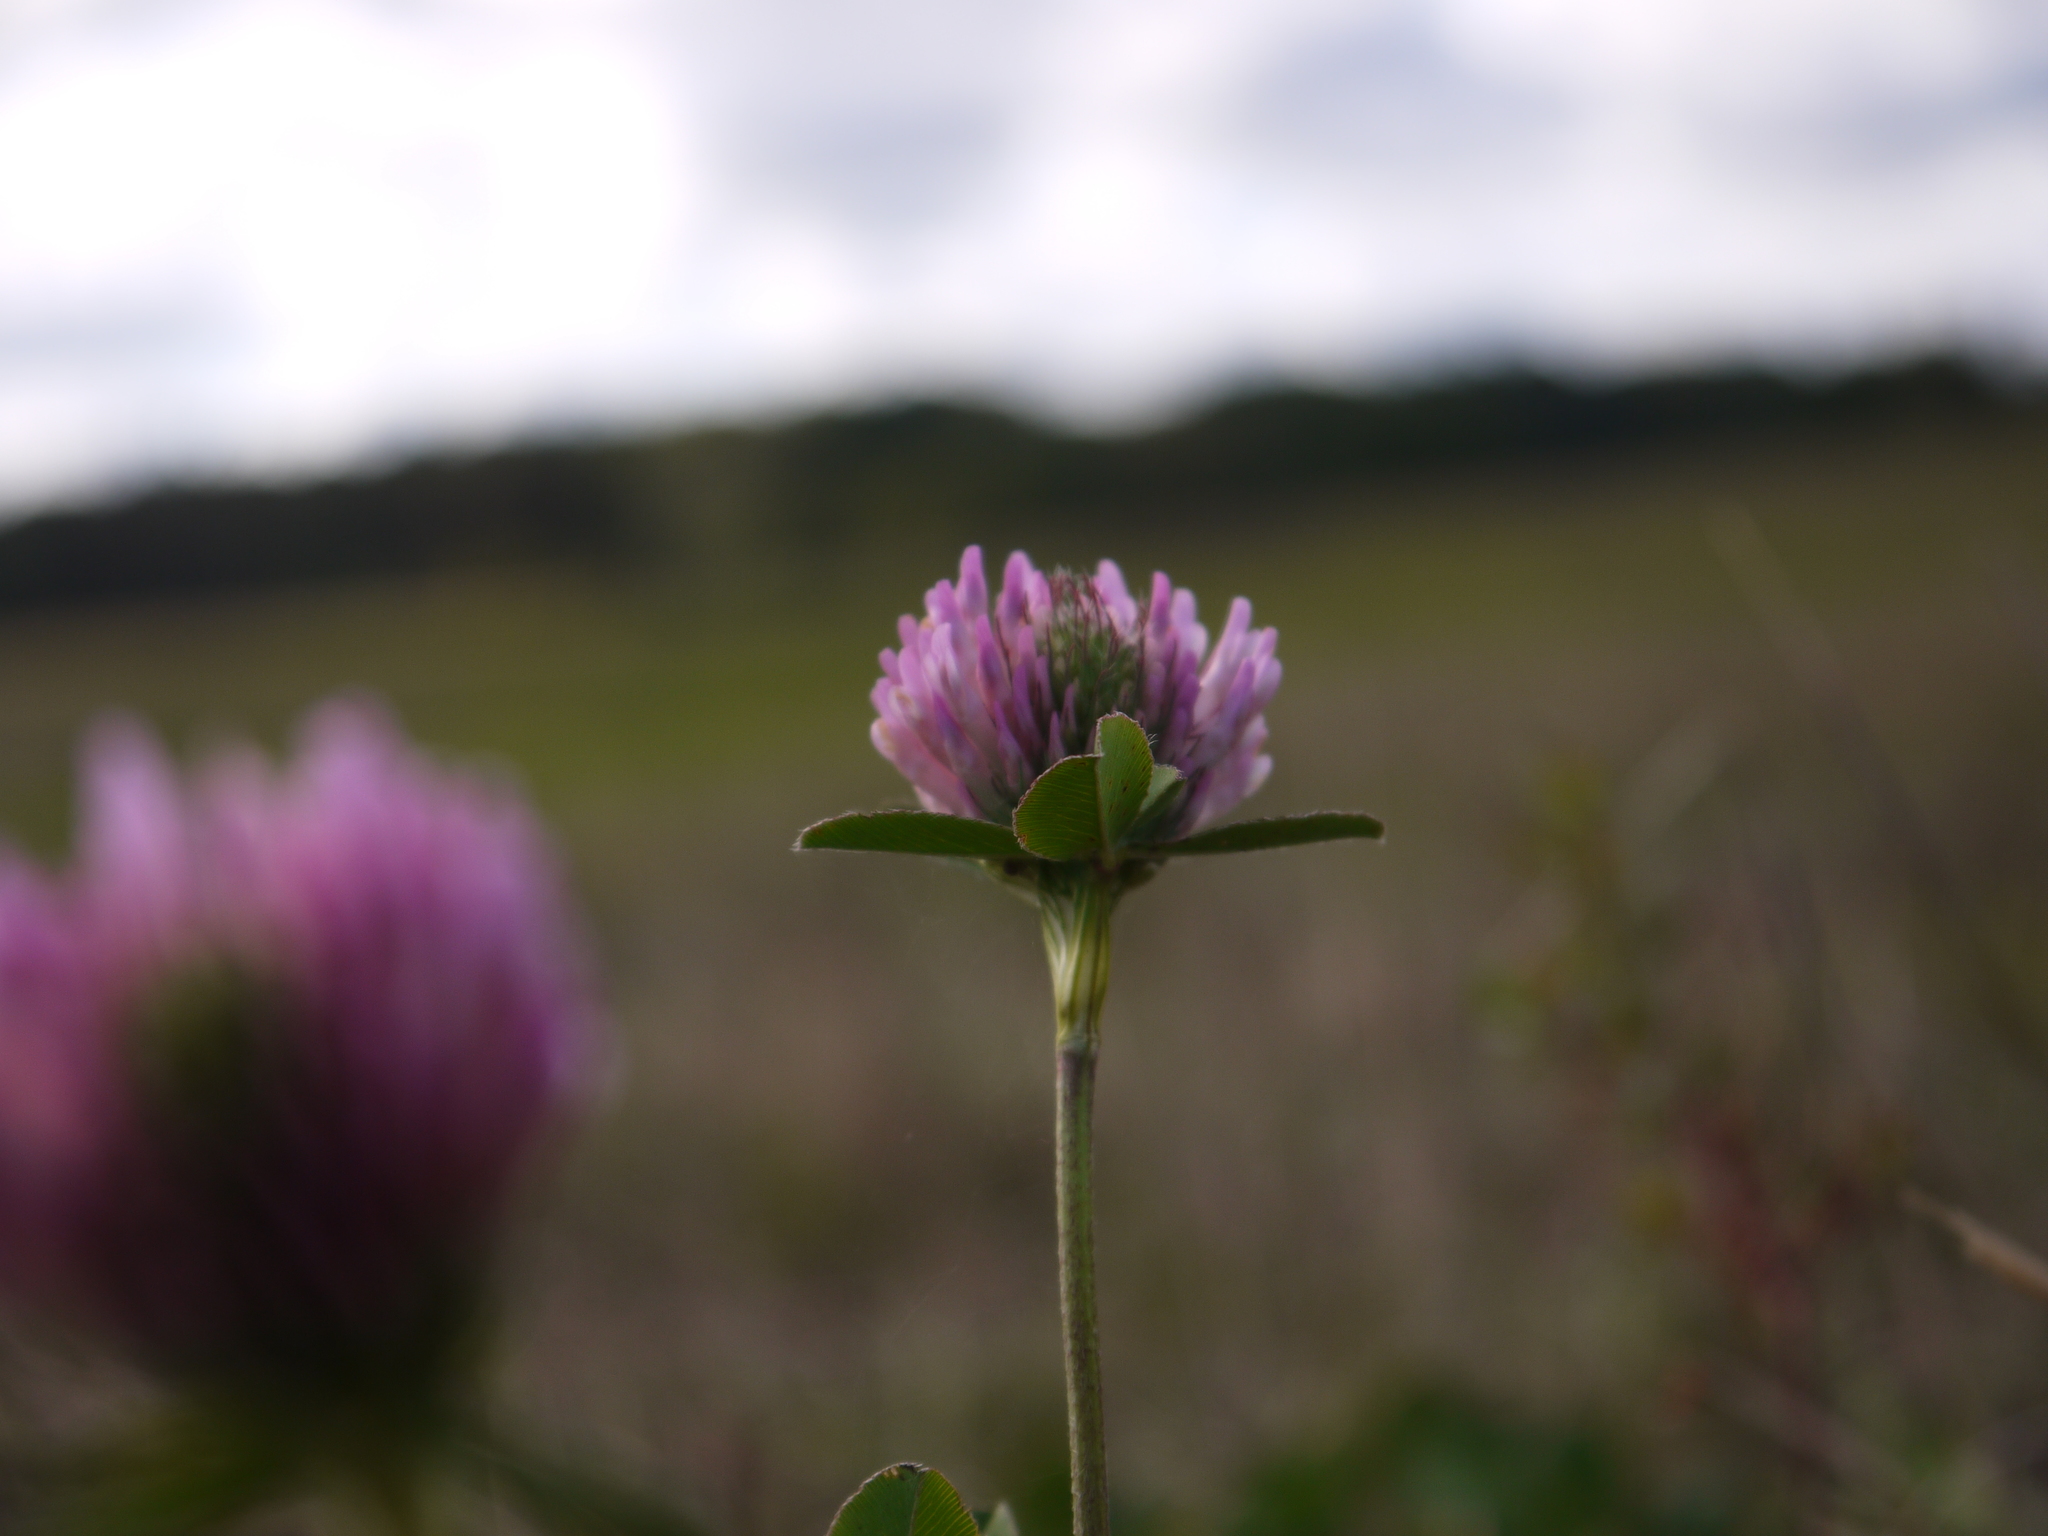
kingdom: Plantae
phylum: Tracheophyta
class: Magnoliopsida
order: Fabales
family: Fabaceae
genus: Trifolium
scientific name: Trifolium pratense
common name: Red clover
